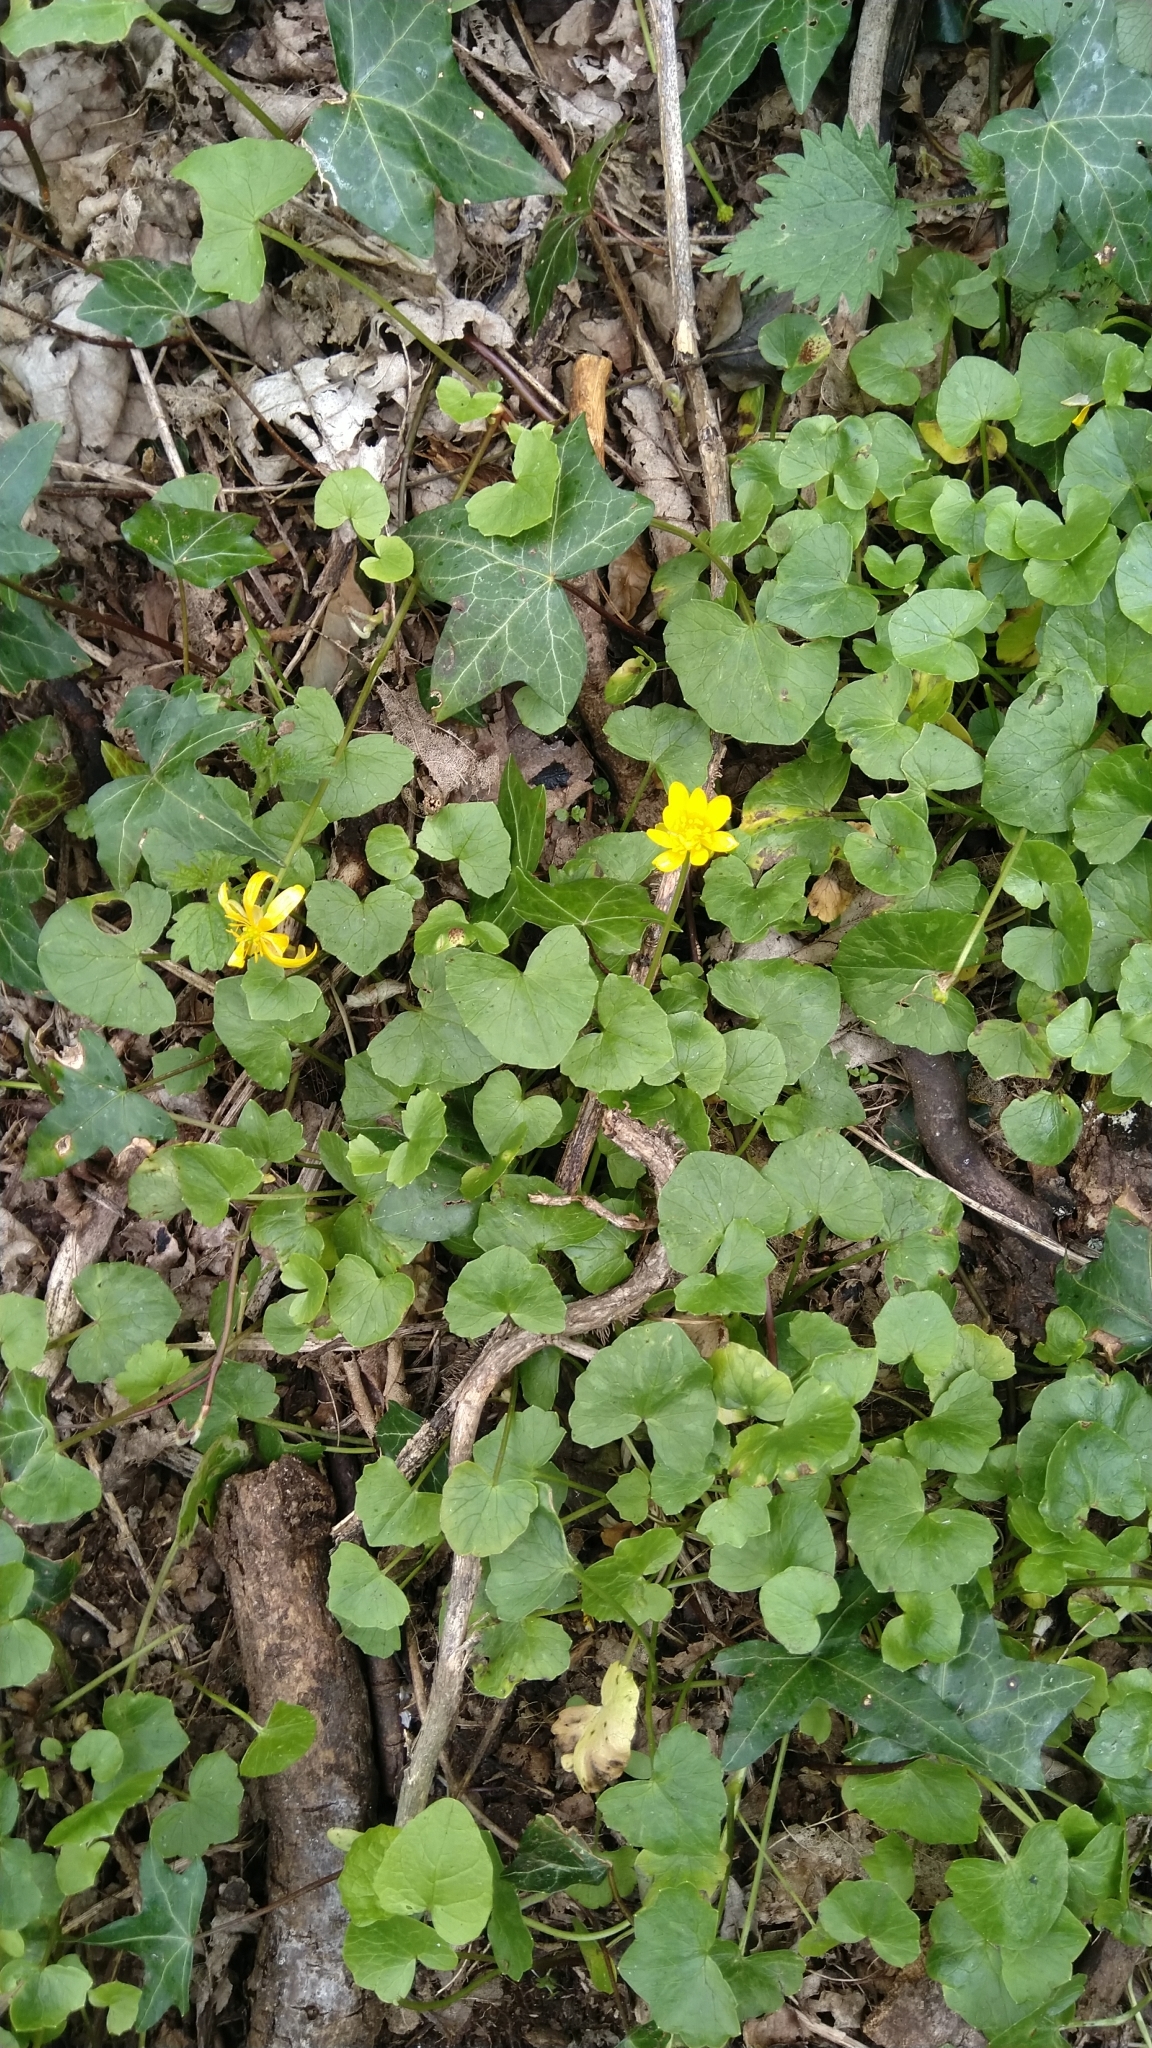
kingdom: Plantae
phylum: Tracheophyta
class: Magnoliopsida
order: Ranunculales
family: Ranunculaceae
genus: Ficaria
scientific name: Ficaria verna
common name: Lesser celandine
